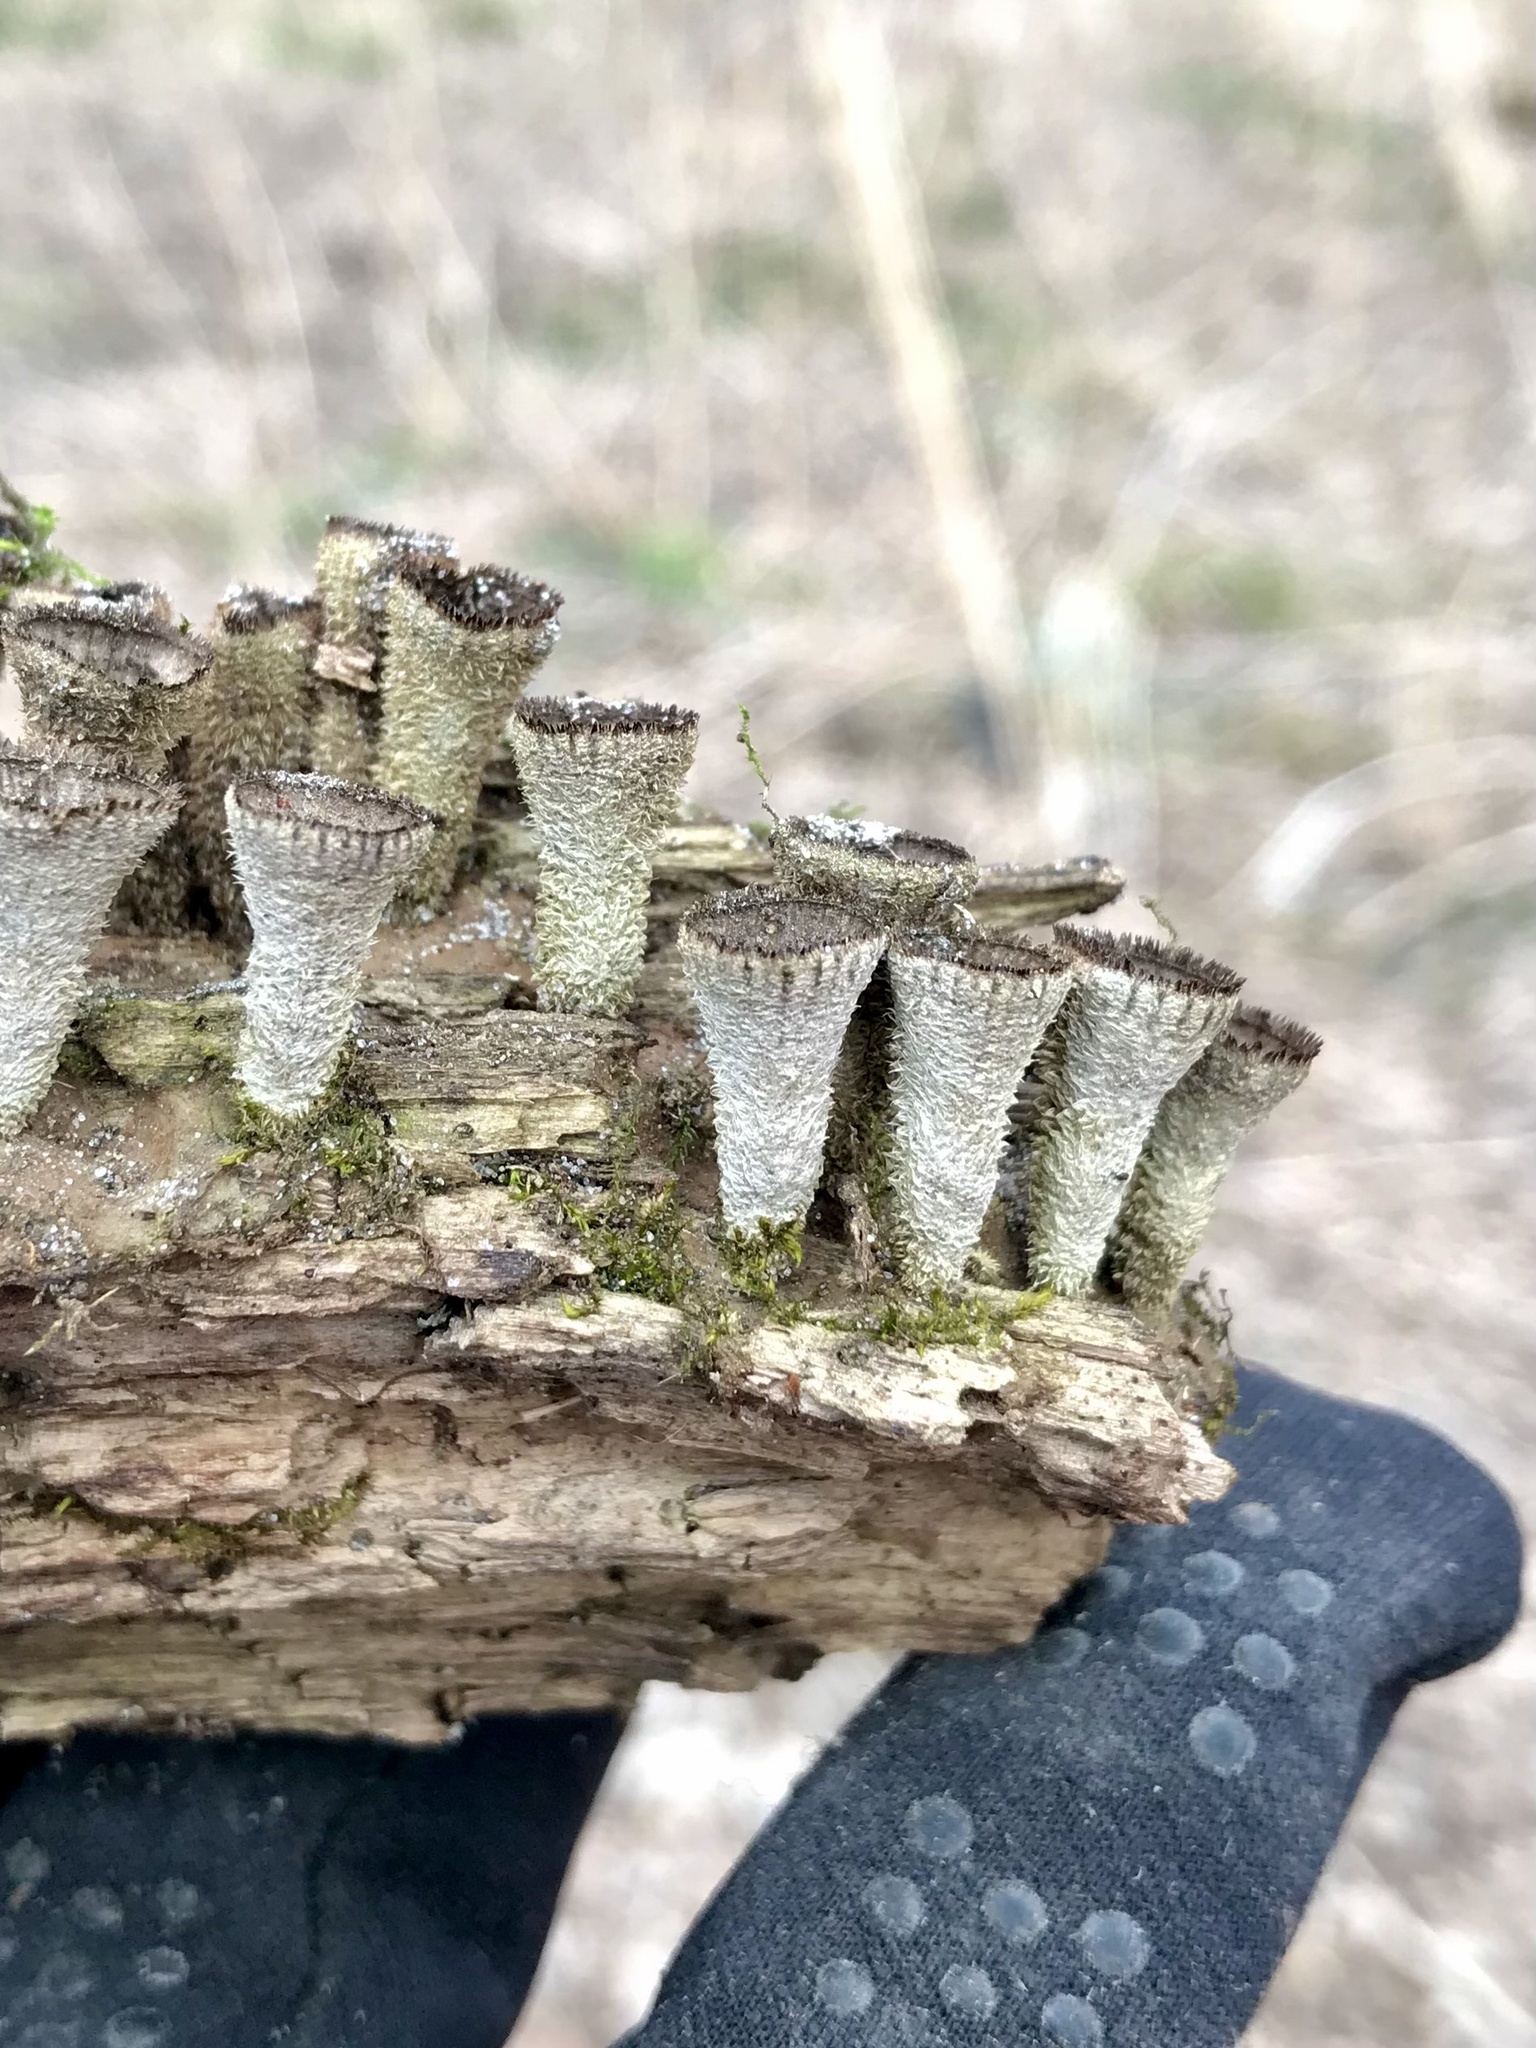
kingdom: Fungi
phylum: Basidiomycota
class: Agaricomycetes
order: Agaricales
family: Agaricaceae
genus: Cyathus
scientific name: Cyathus striatus
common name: Fluted bird's nest
